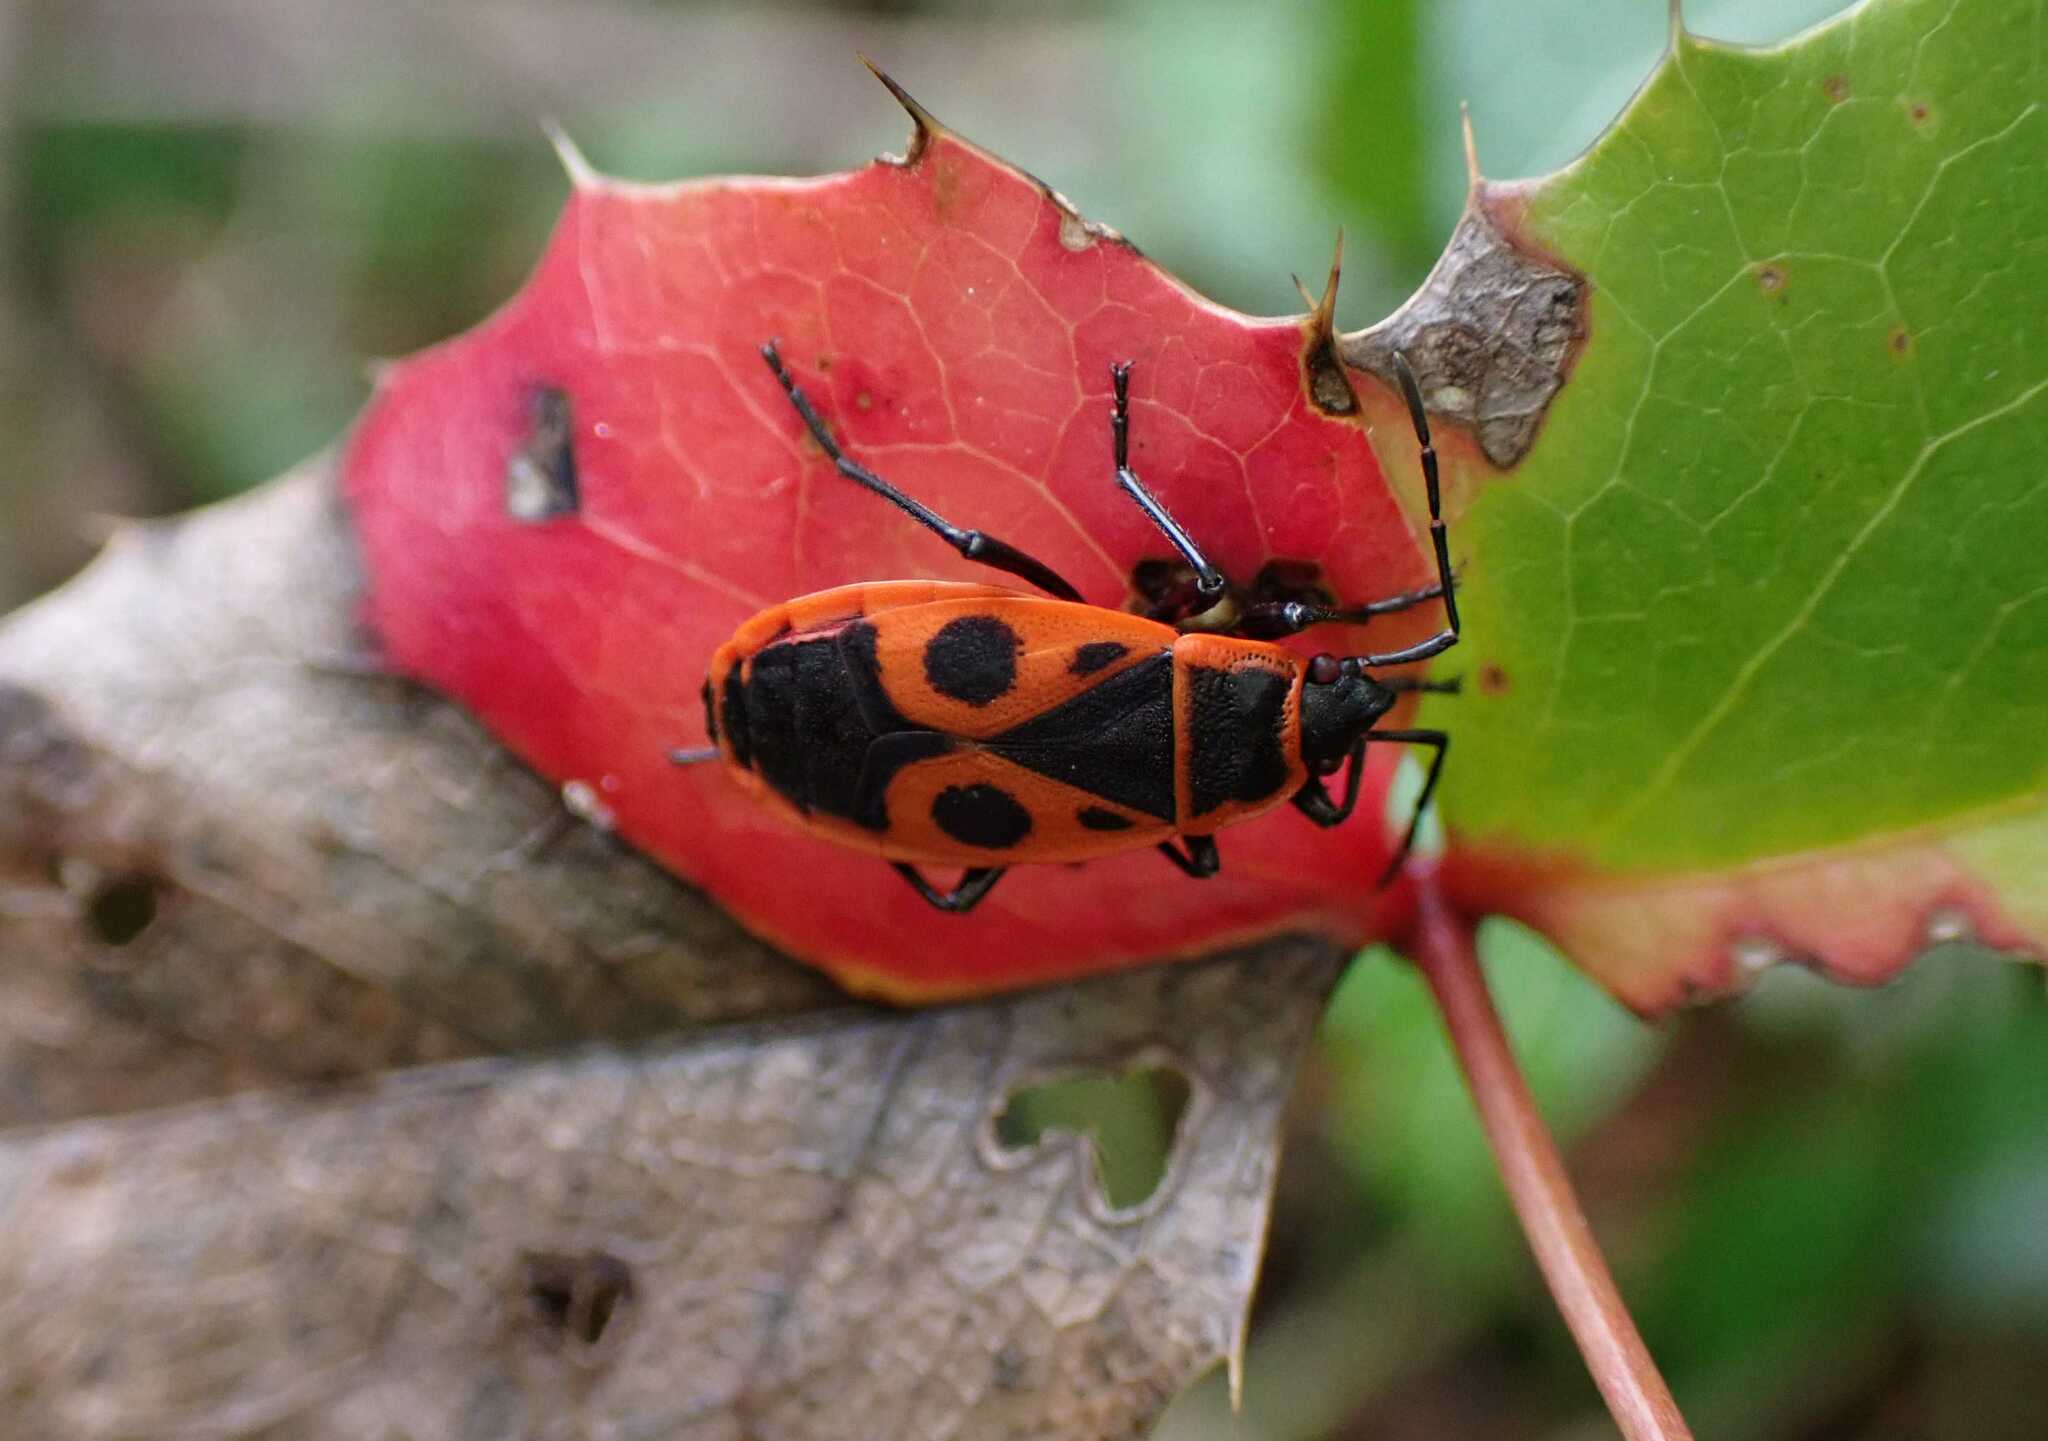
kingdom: Animalia
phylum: Arthropoda
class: Insecta
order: Hemiptera
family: Pyrrhocoridae
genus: Pyrrhocoris
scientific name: Pyrrhocoris apterus
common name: Firebug
